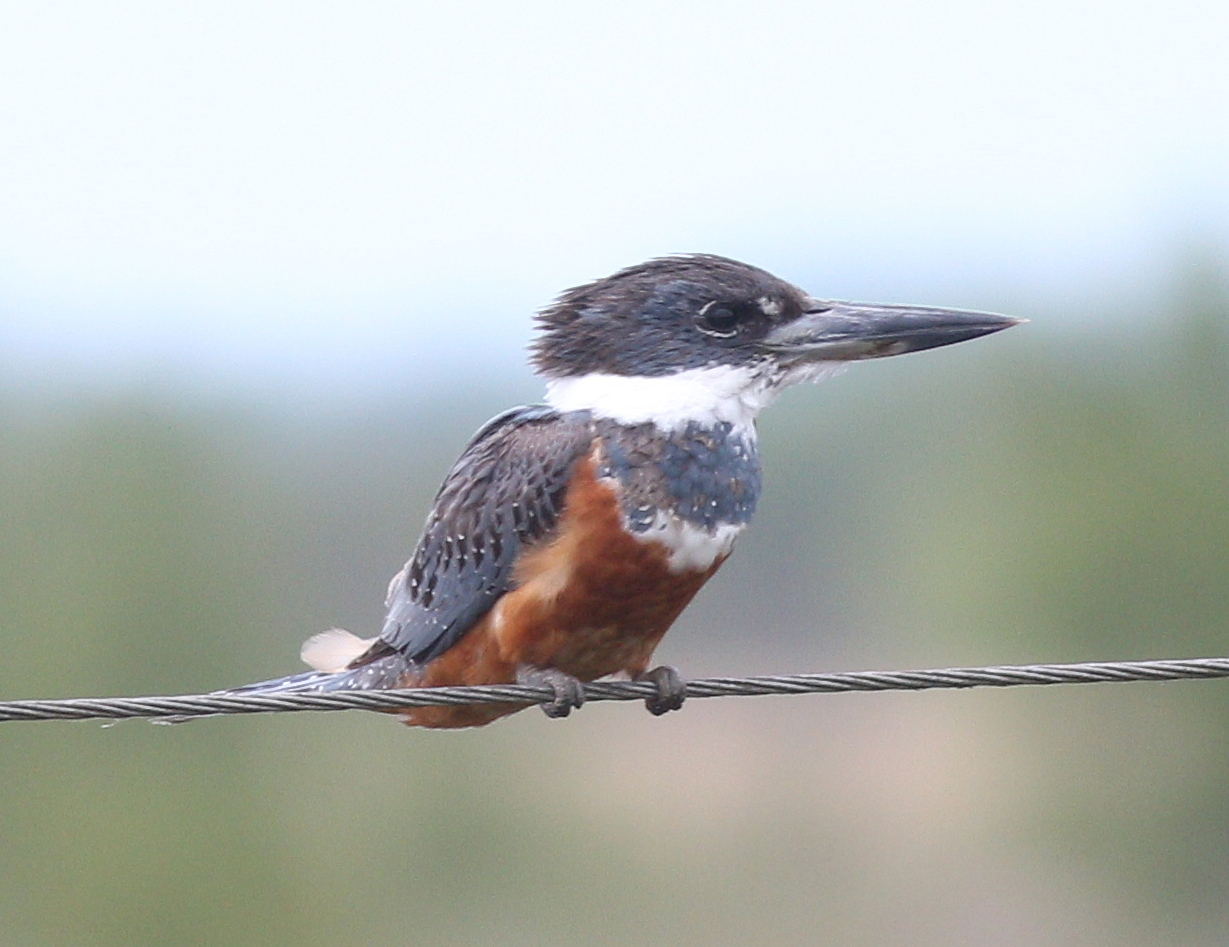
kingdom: Animalia
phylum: Chordata
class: Aves
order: Coraciiformes
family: Alcedinidae
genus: Megaceryle
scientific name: Megaceryle torquata
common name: Ringed kingfisher
